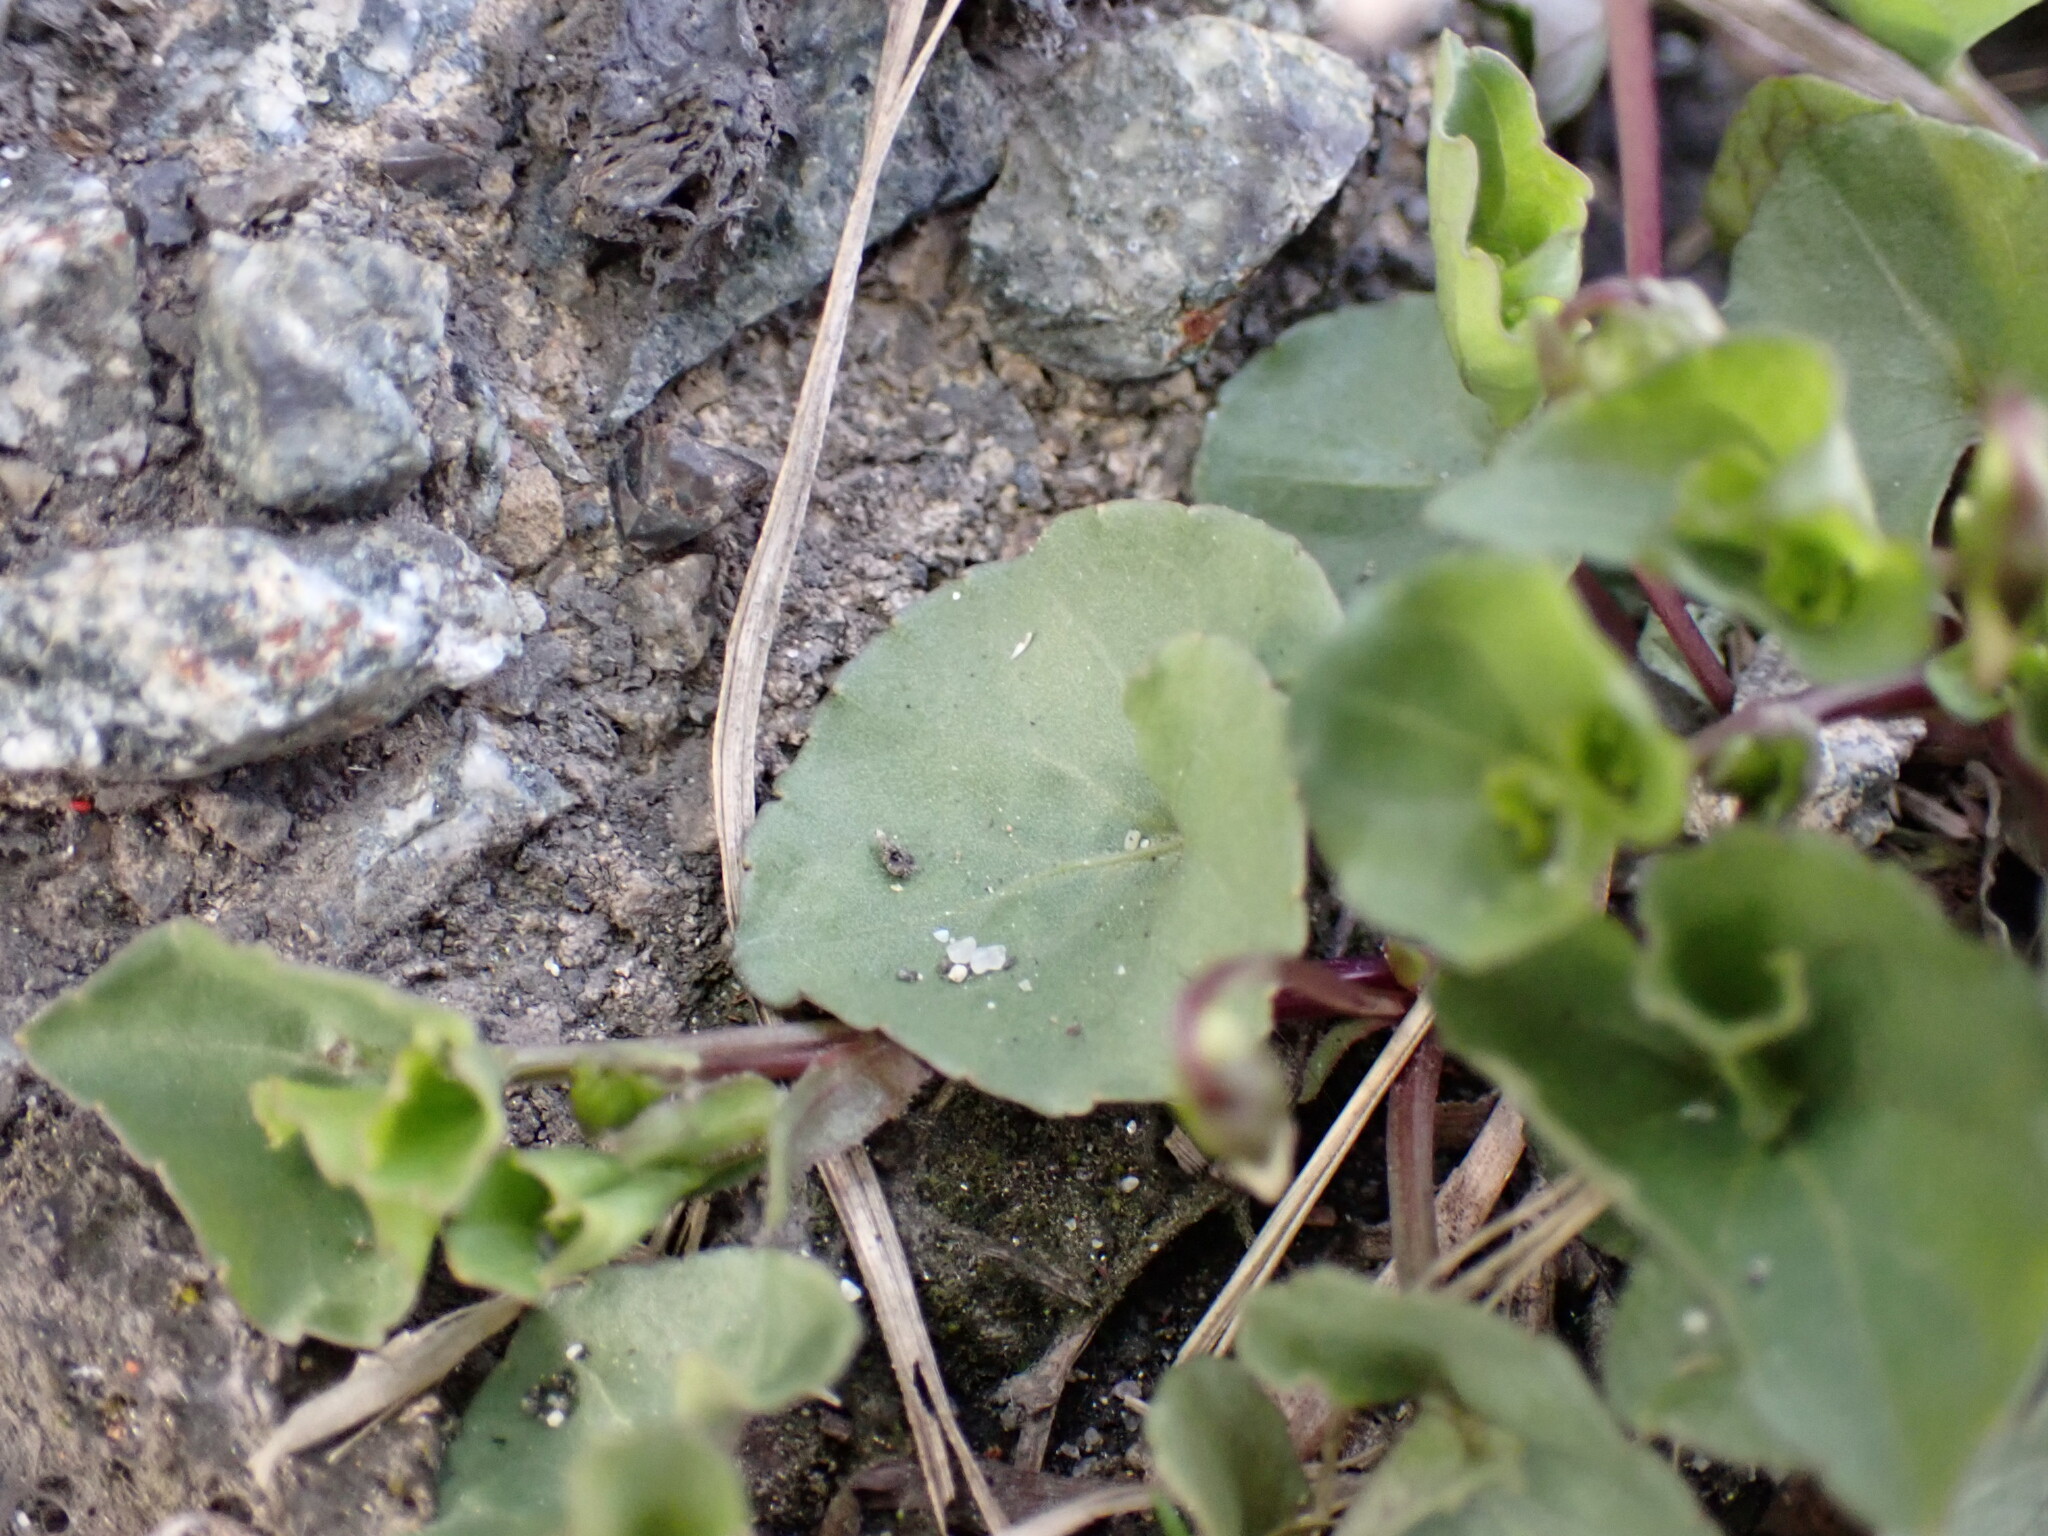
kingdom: Plantae
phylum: Tracheophyta
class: Magnoliopsida
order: Malpighiales
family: Violaceae
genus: Viola
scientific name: Viola
